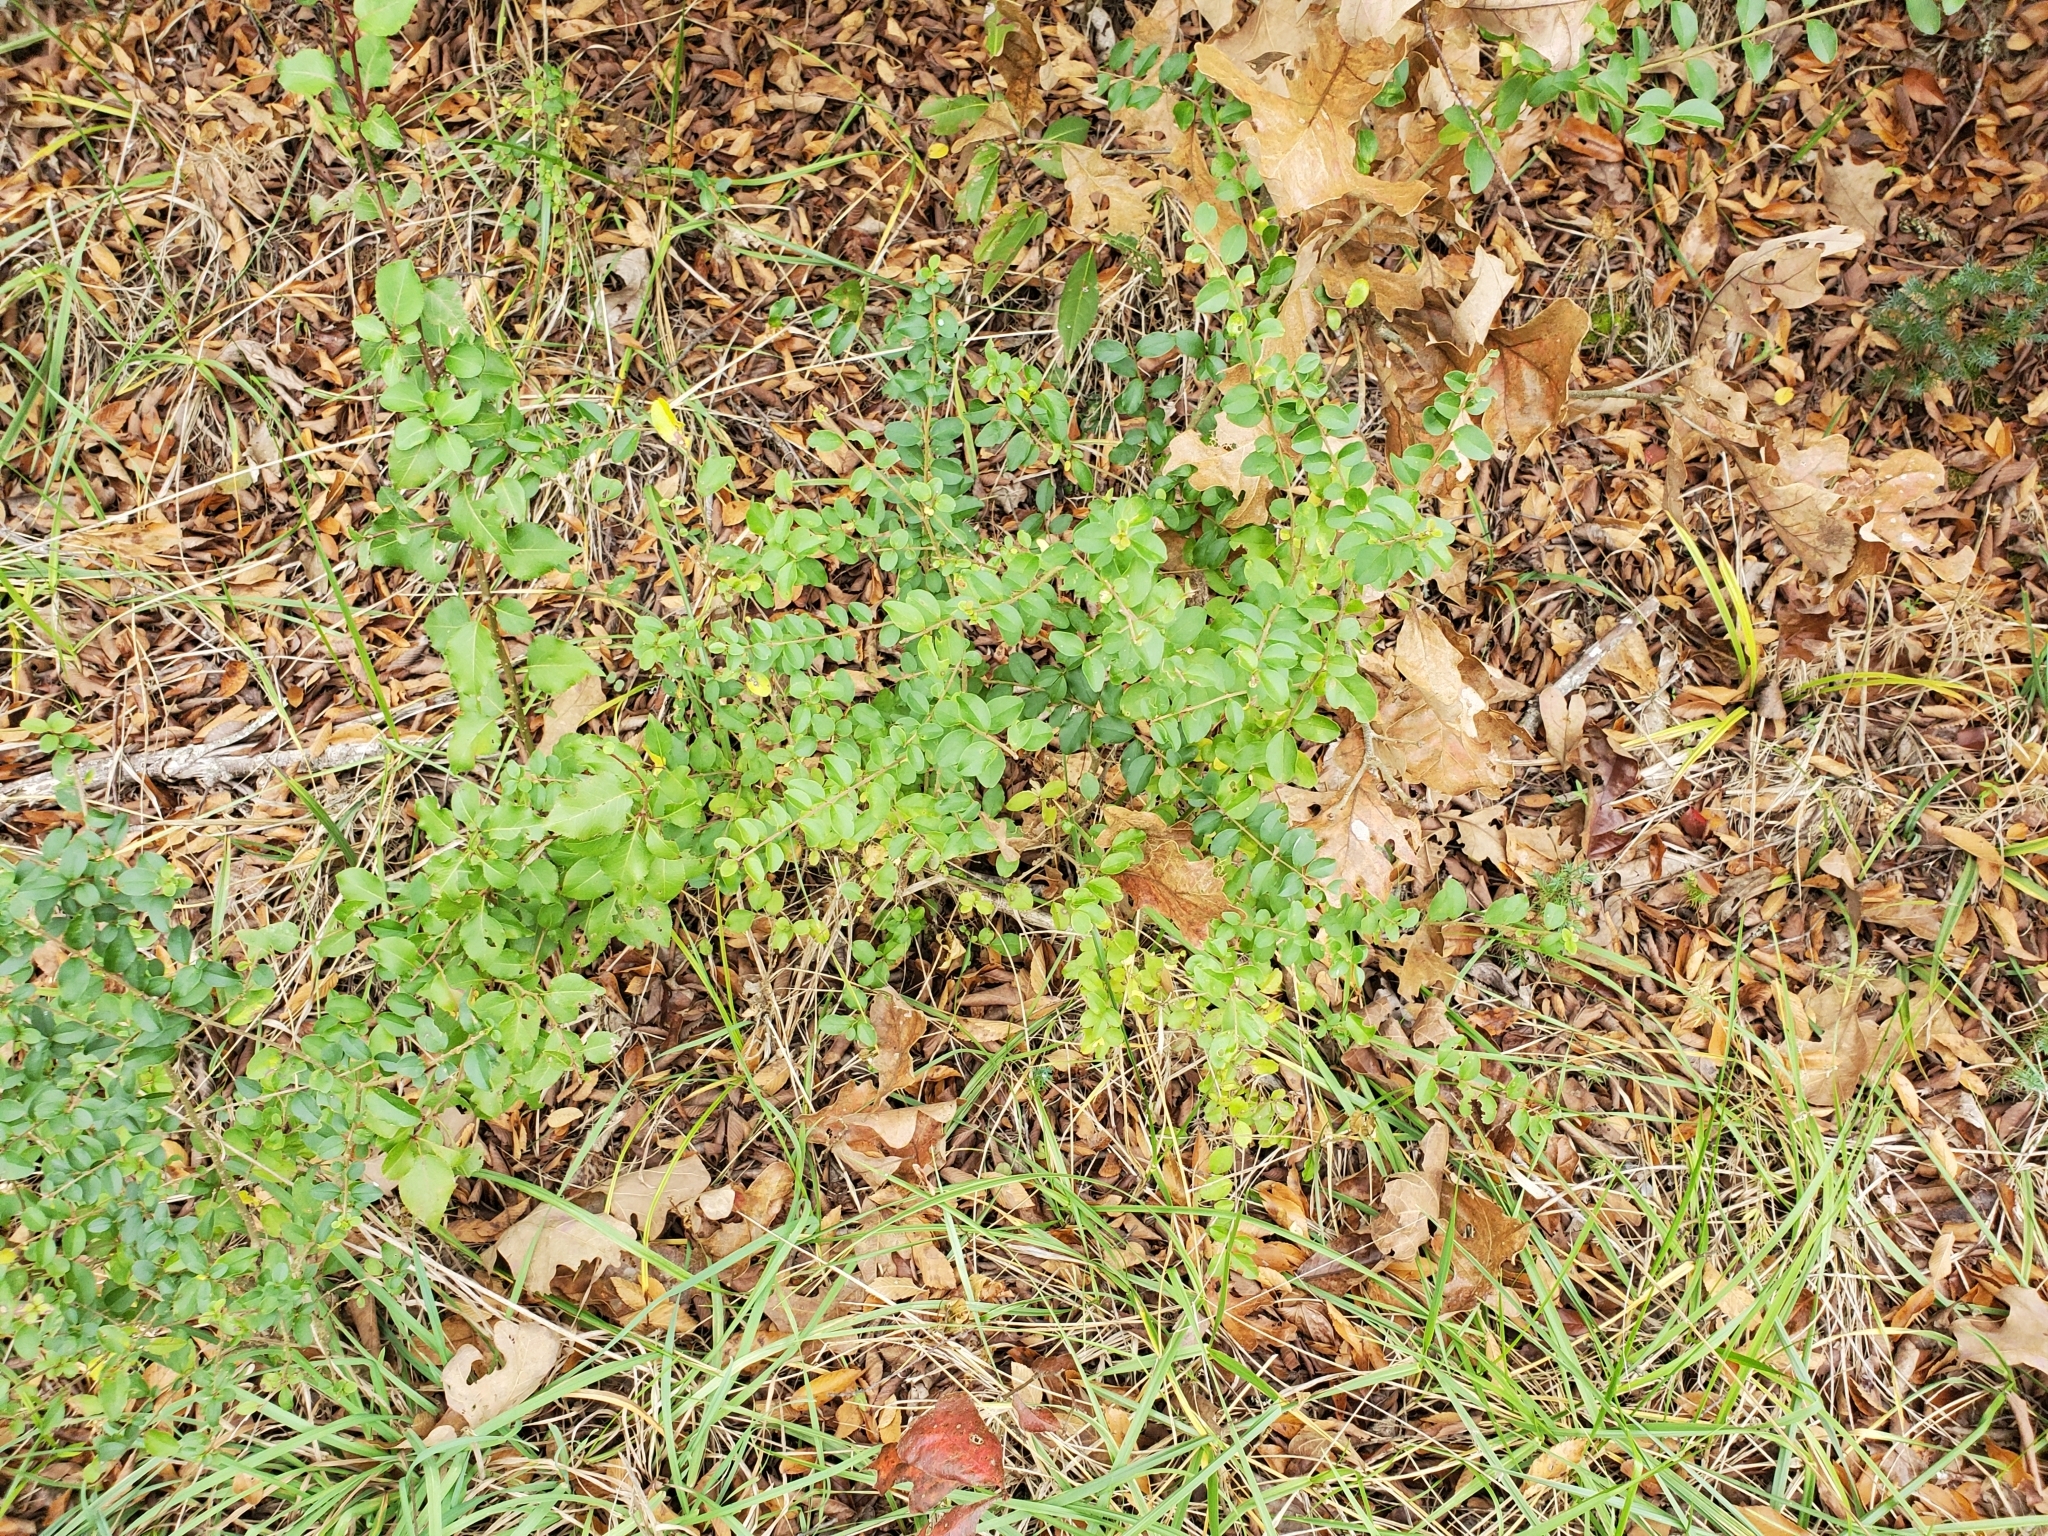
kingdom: Plantae
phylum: Tracheophyta
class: Magnoliopsida
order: Lamiales
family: Oleaceae
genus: Ligustrum
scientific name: Ligustrum sinense
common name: Chinese privet
